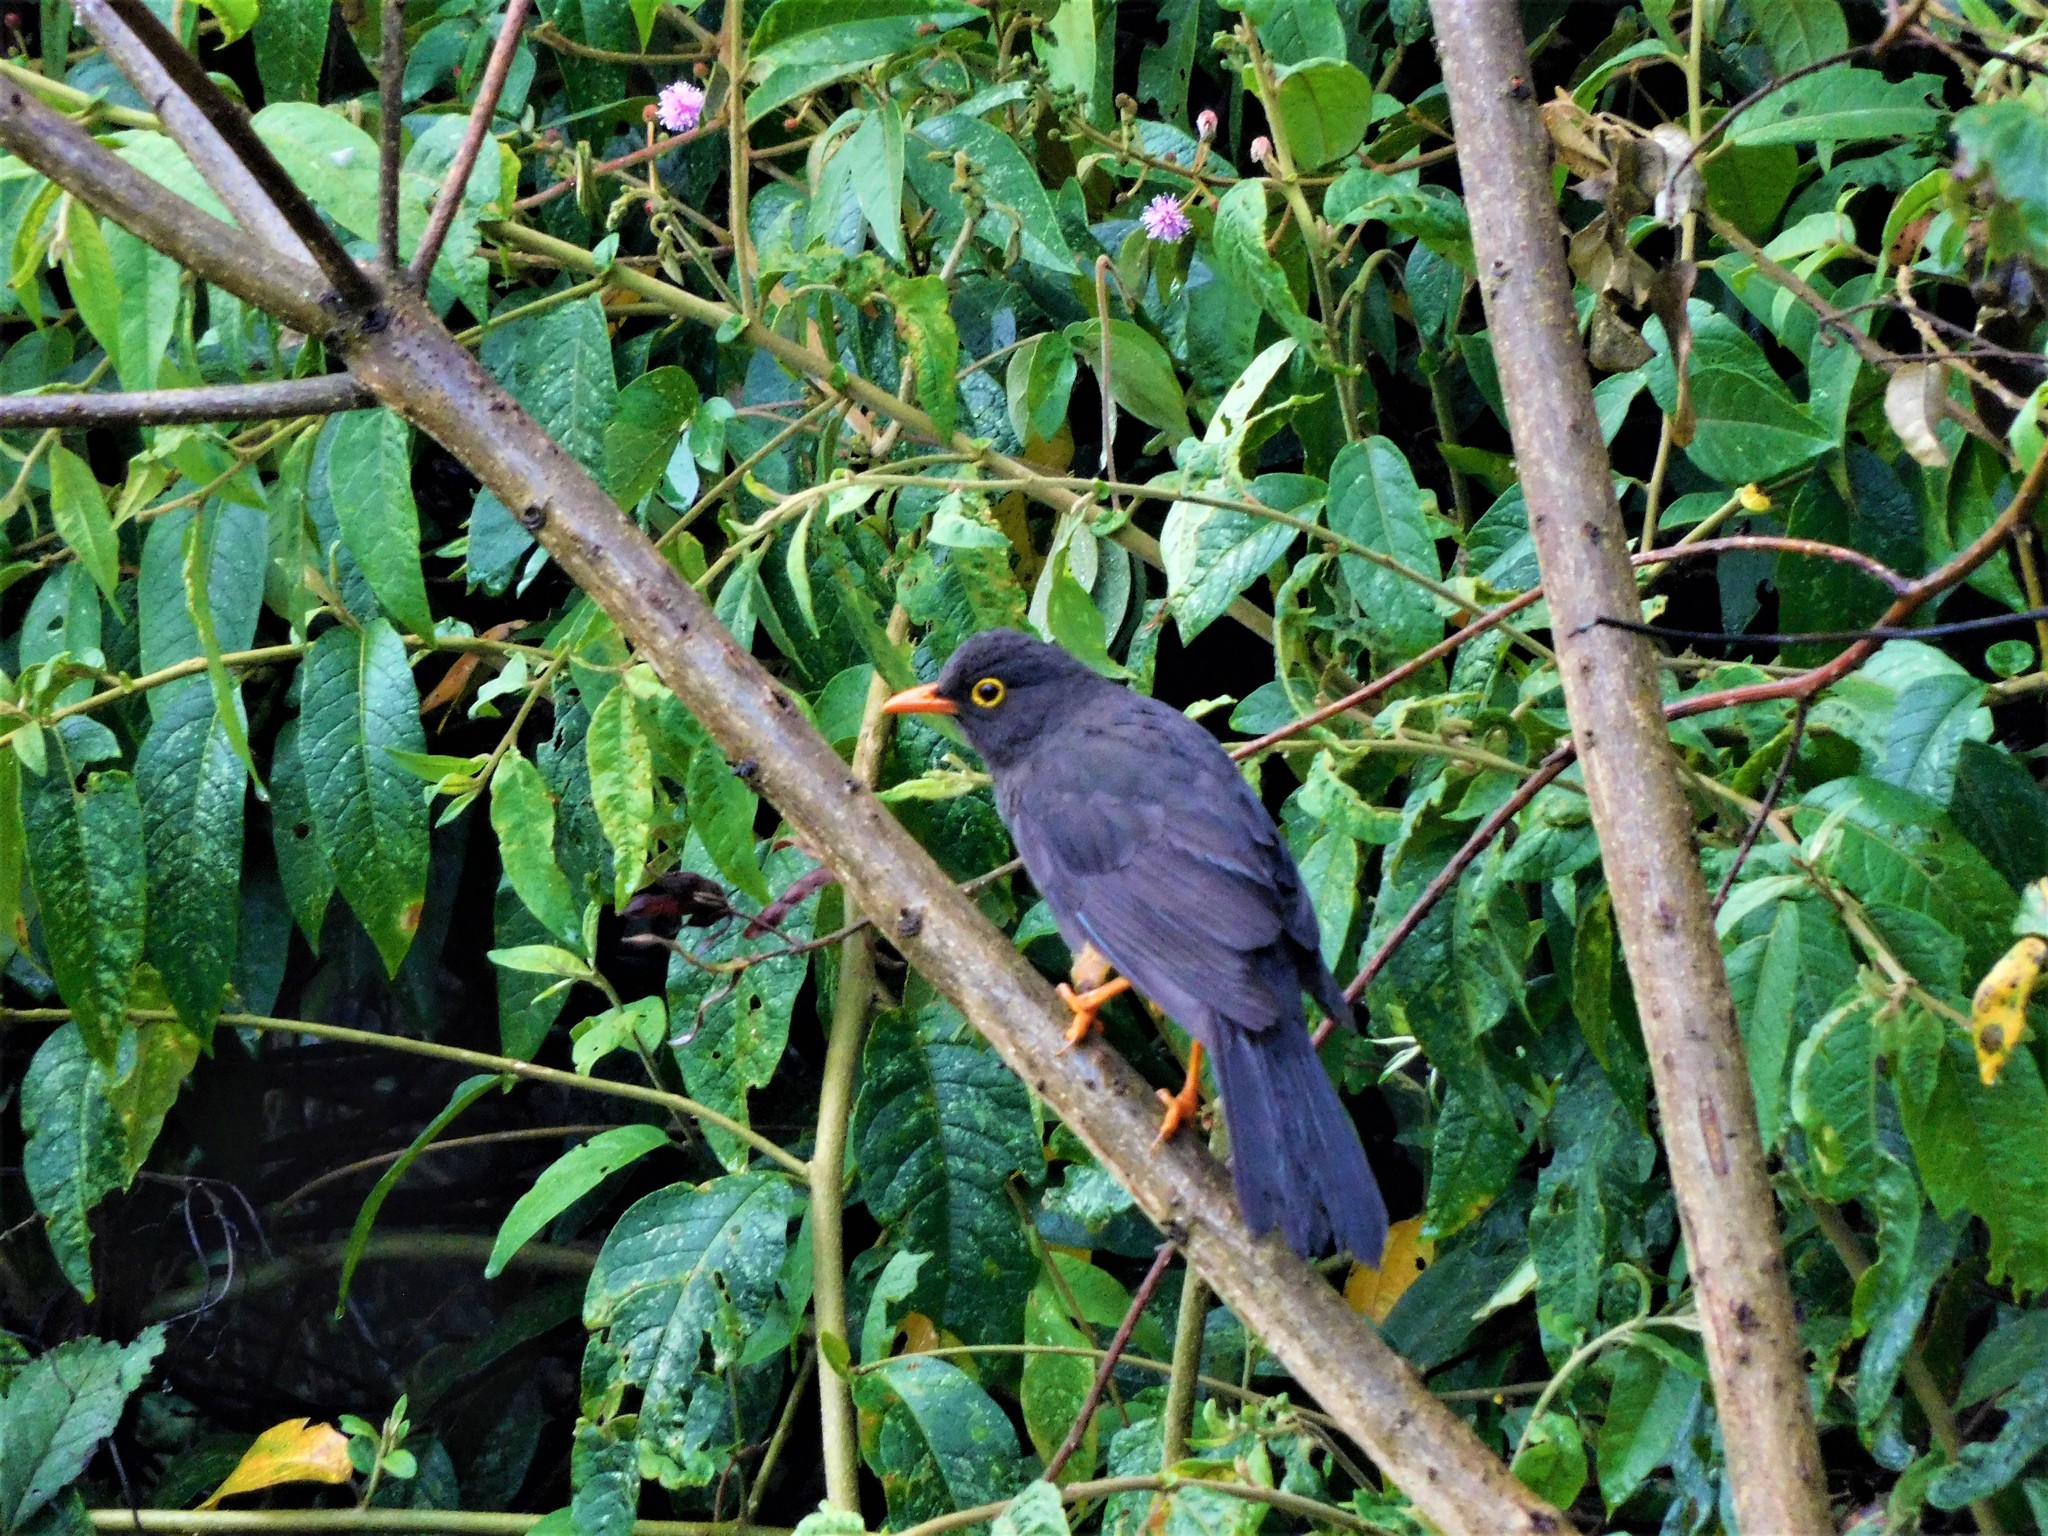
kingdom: Animalia
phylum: Chordata
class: Aves
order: Passeriformes
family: Turdidae
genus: Turdus
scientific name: Turdus fuscater
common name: Great thrush
